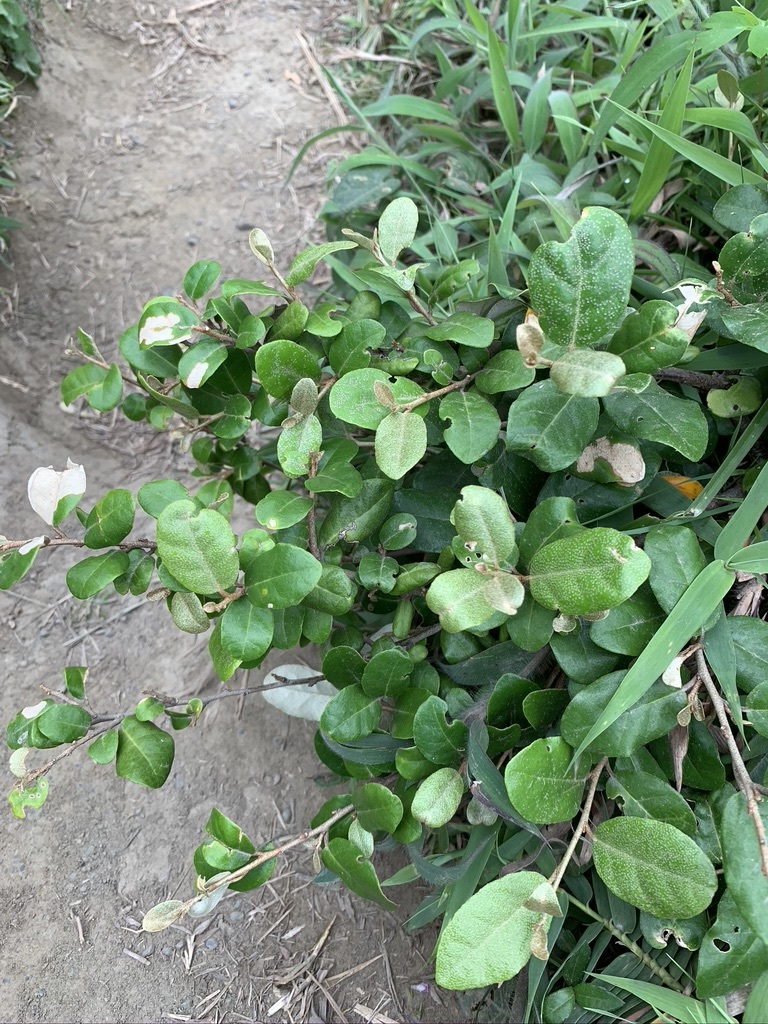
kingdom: Plantae
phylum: Tracheophyta
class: Magnoliopsida
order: Rosales
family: Elaeagnaceae
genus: Elaeagnus
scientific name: Elaeagnus formosana
